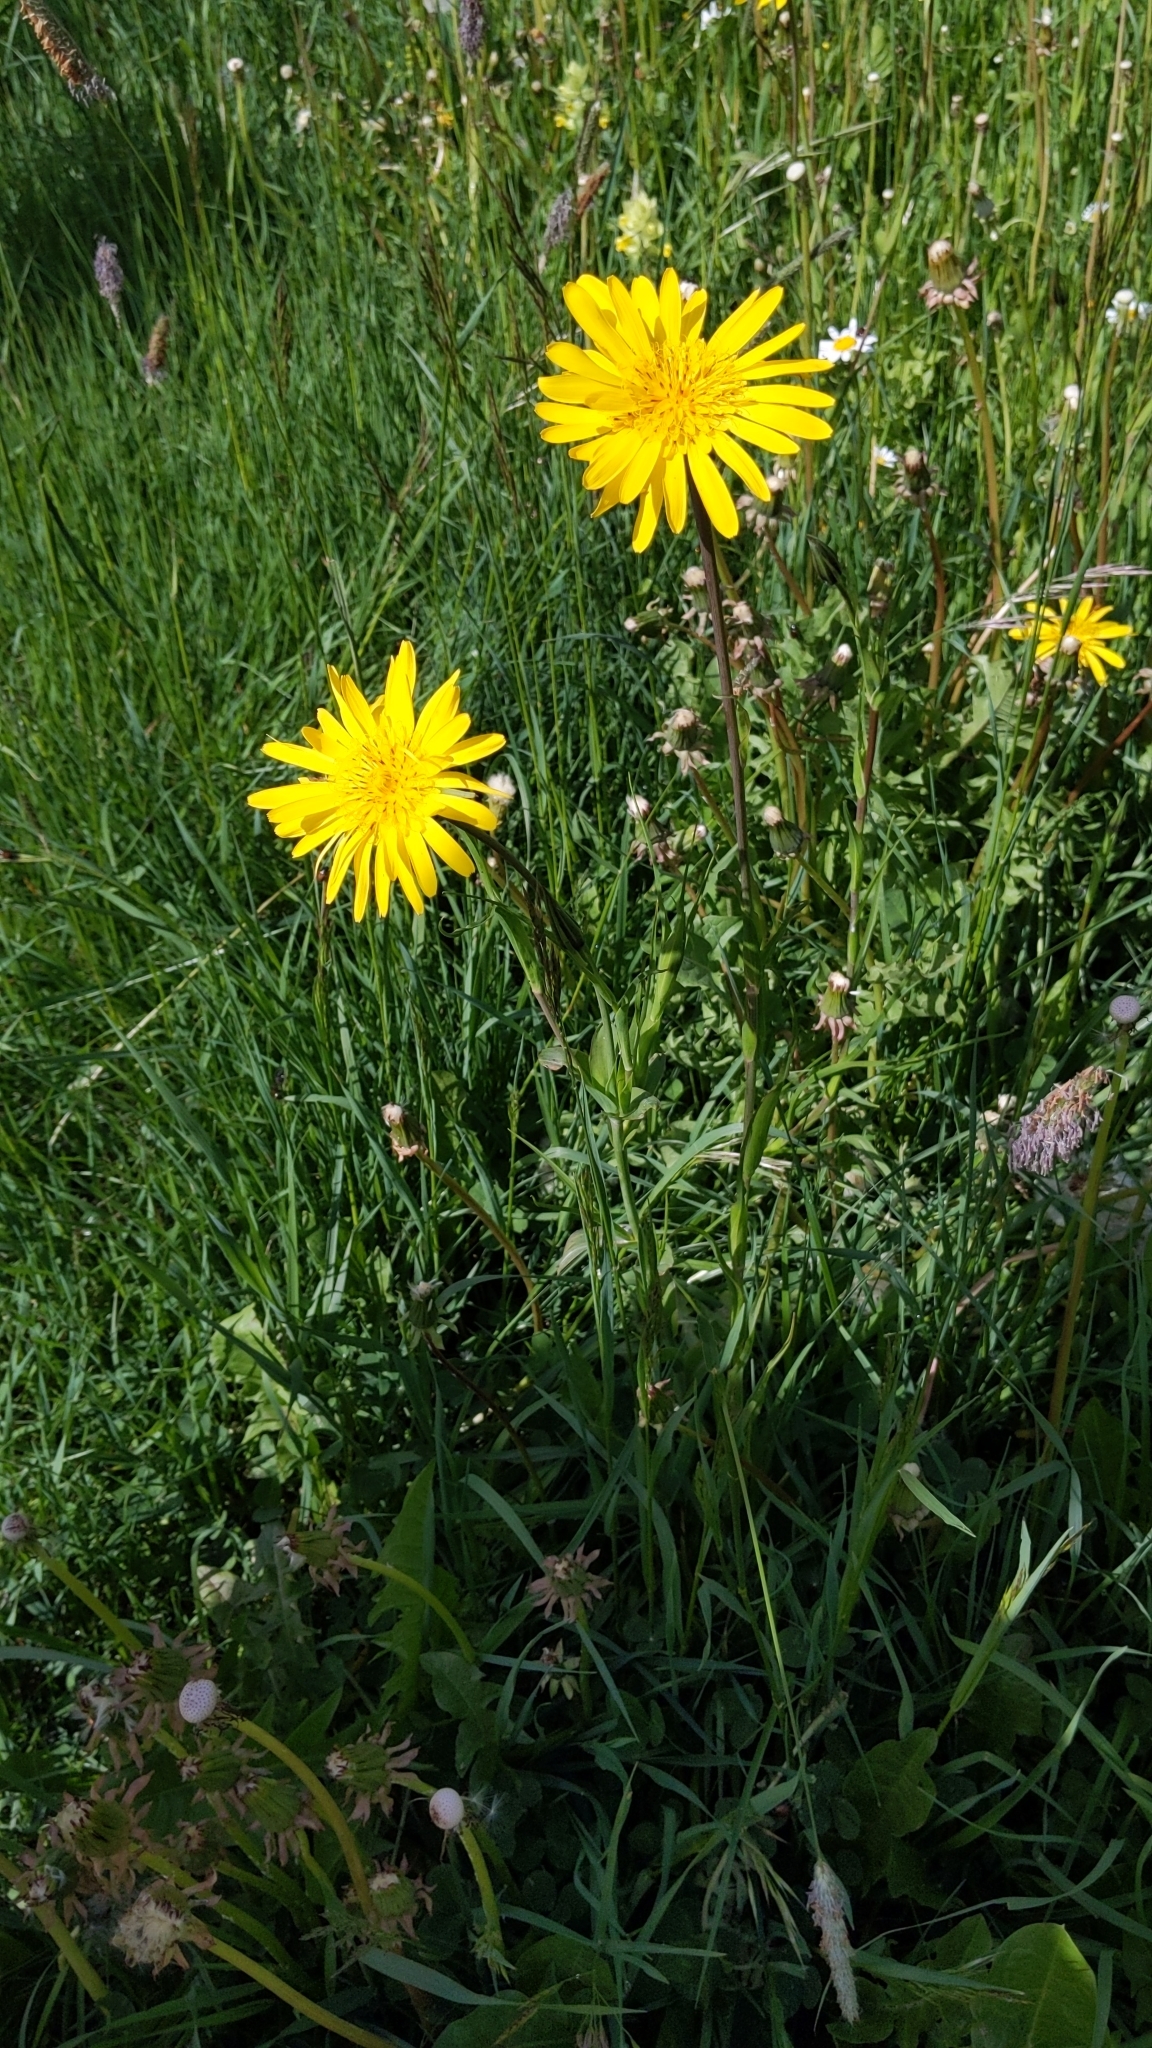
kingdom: Plantae
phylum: Tracheophyta
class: Magnoliopsida
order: Asterales
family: Asteraceae
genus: Tragopogon
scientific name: Tragopogon orientalis
